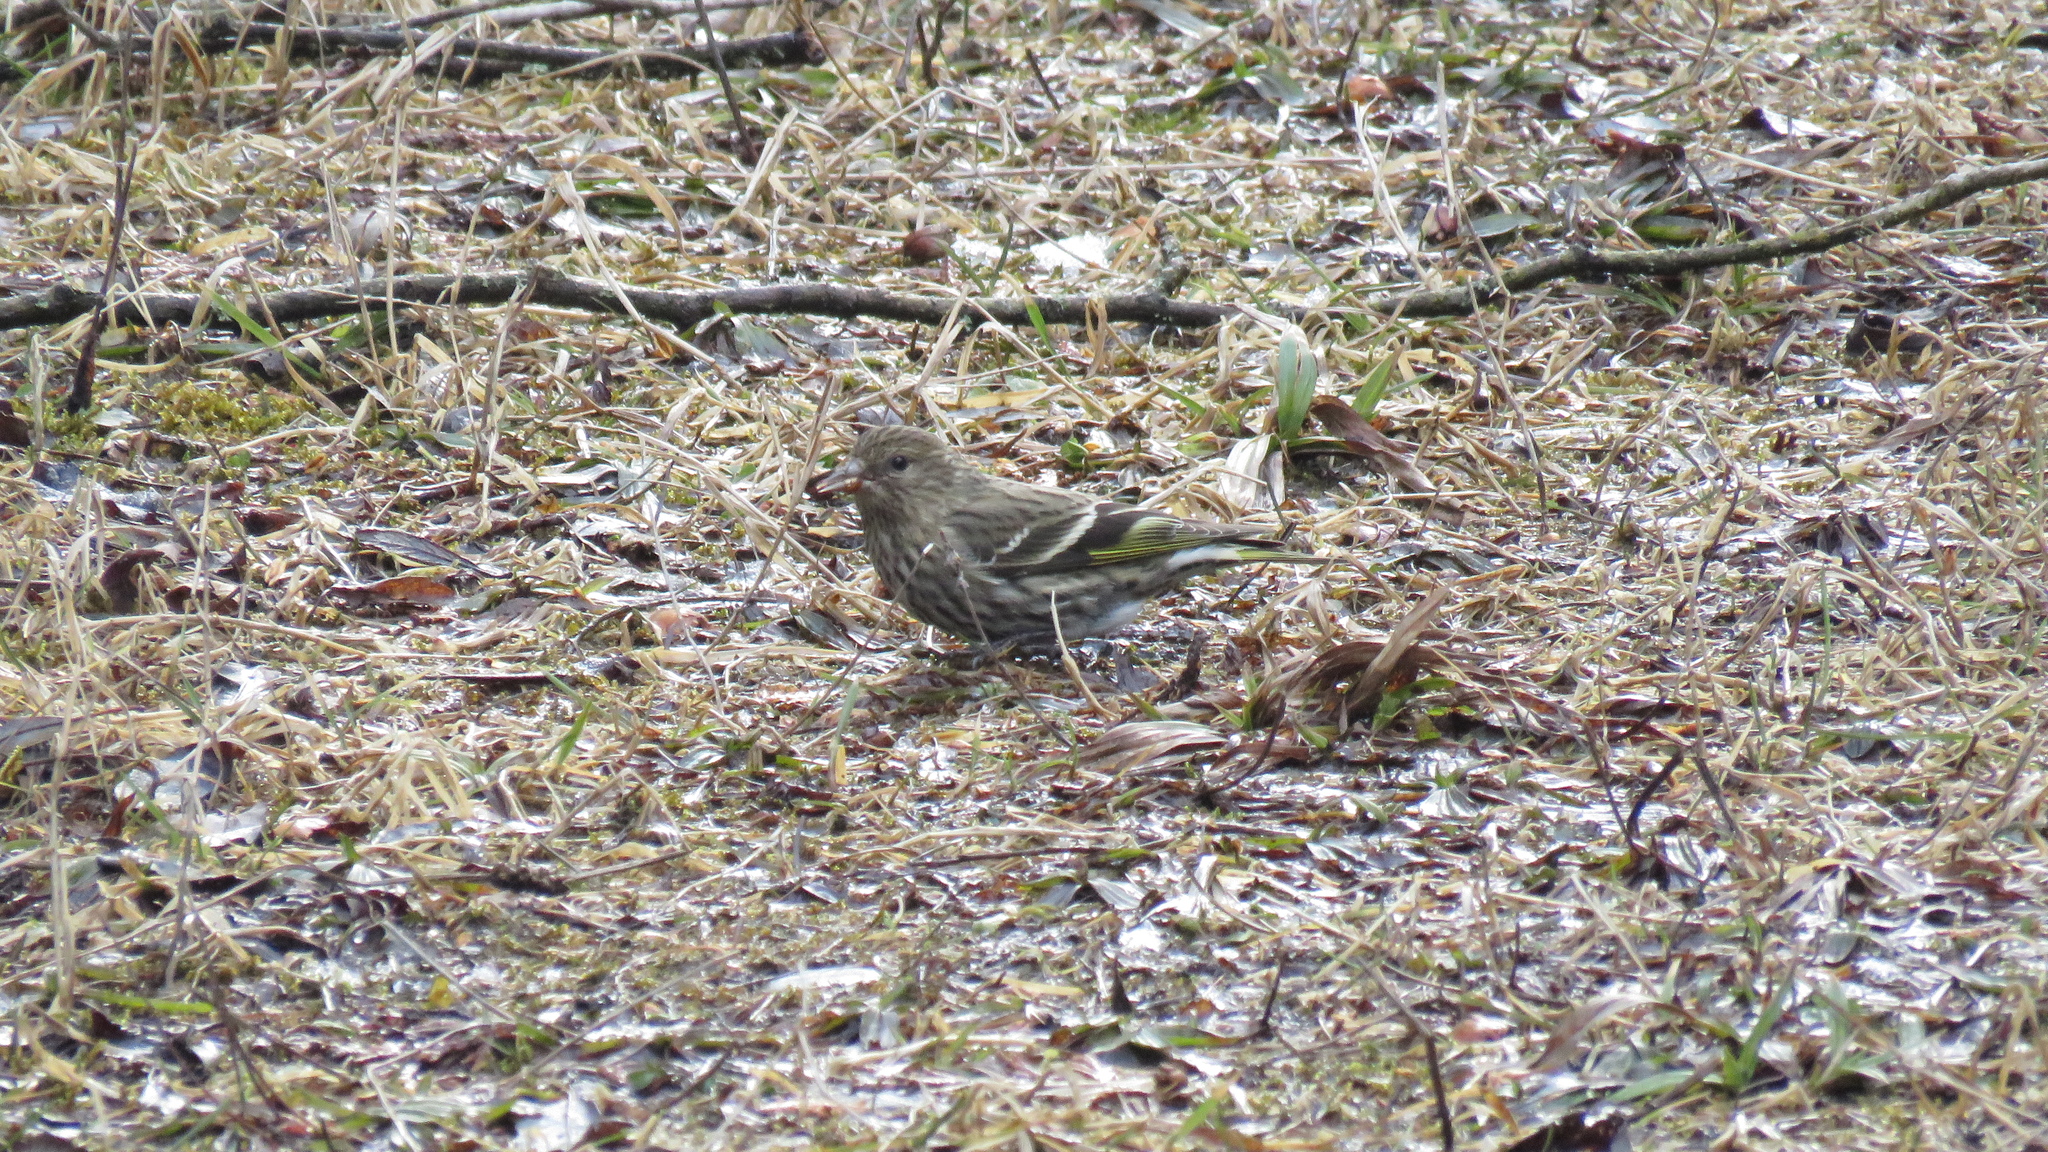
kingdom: Animalia
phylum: Chordata
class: Aves
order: Passeriformes
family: Fringillidae
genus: Spinus
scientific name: Spinus pinus
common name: Pine siskin
